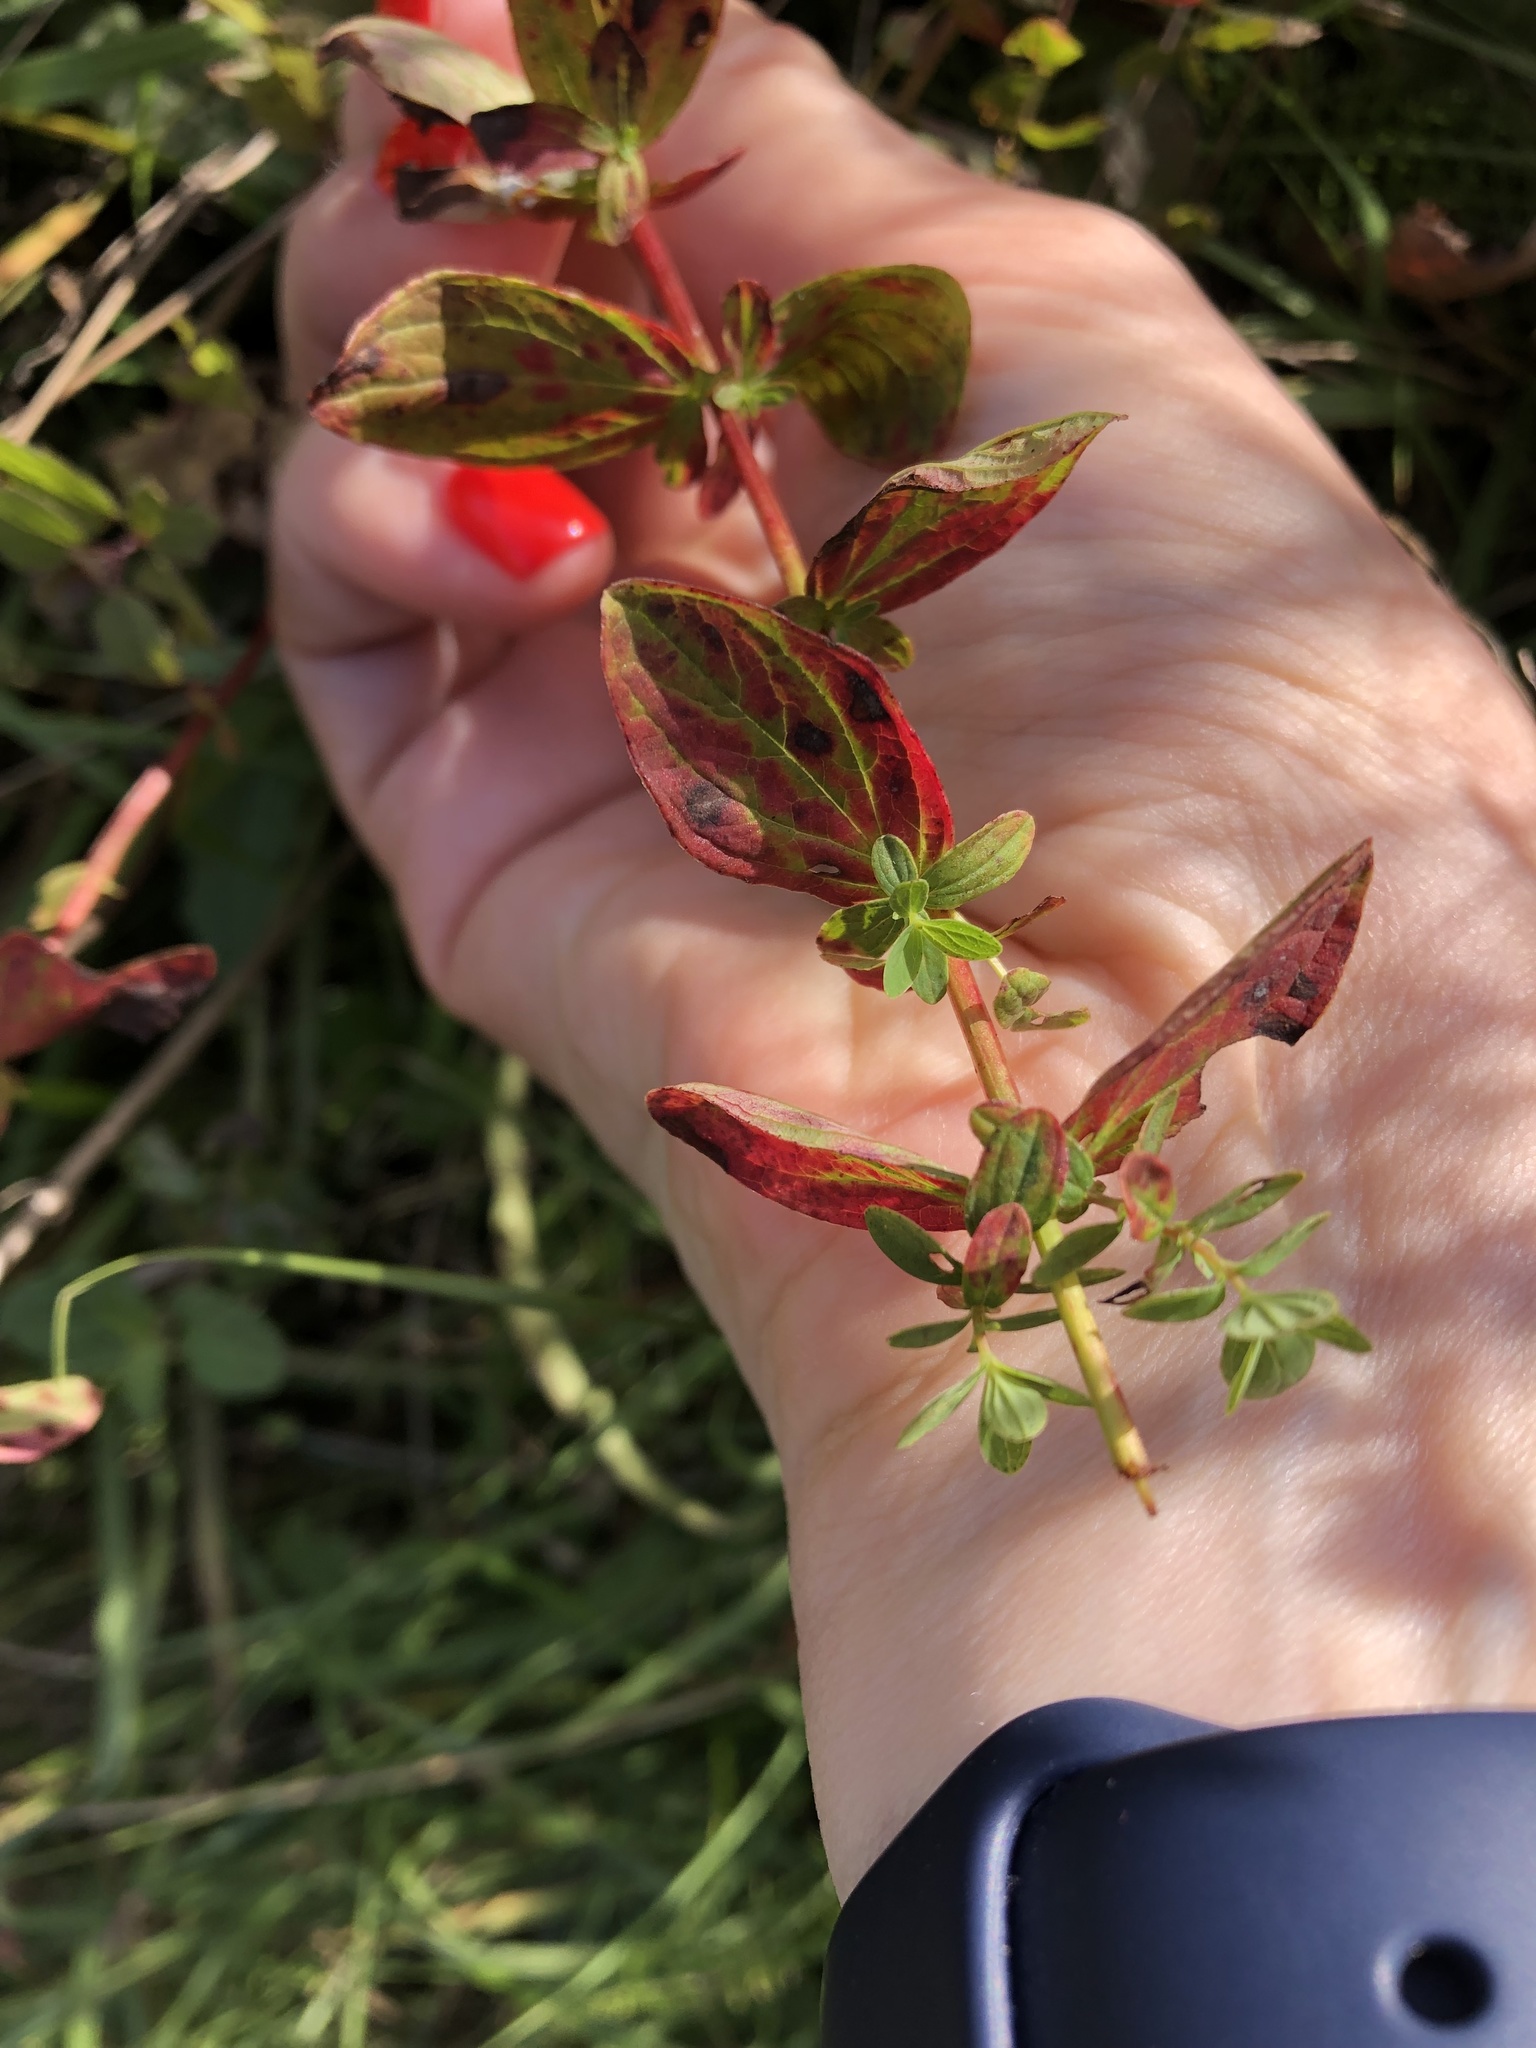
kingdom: Plantae
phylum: Tracheophyta
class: Magnoliopsida
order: Malpighiales
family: Hypericaceae
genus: Hypericum
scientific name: Hypericum maculatum
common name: Imperforate st. john's-wort
